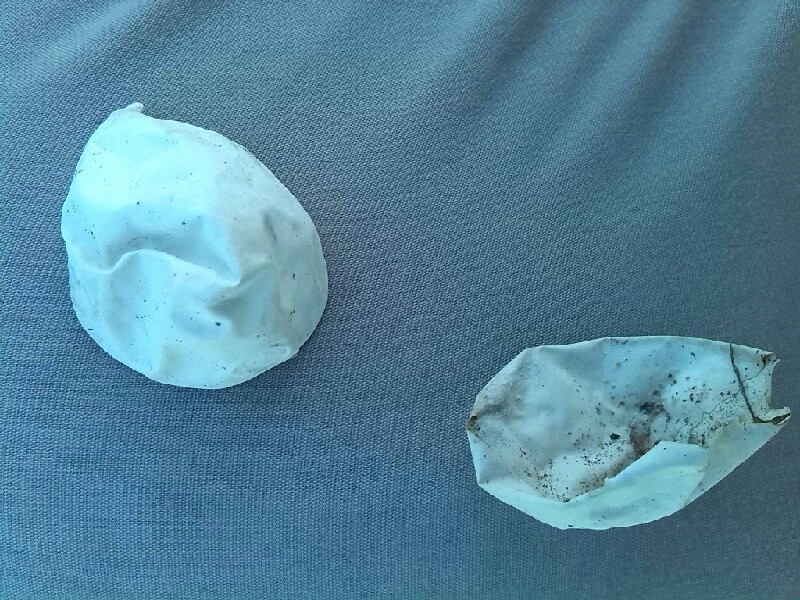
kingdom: Animalia
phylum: Chordata
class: Squamata
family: Colubridae
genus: Natrix
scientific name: Natrix
